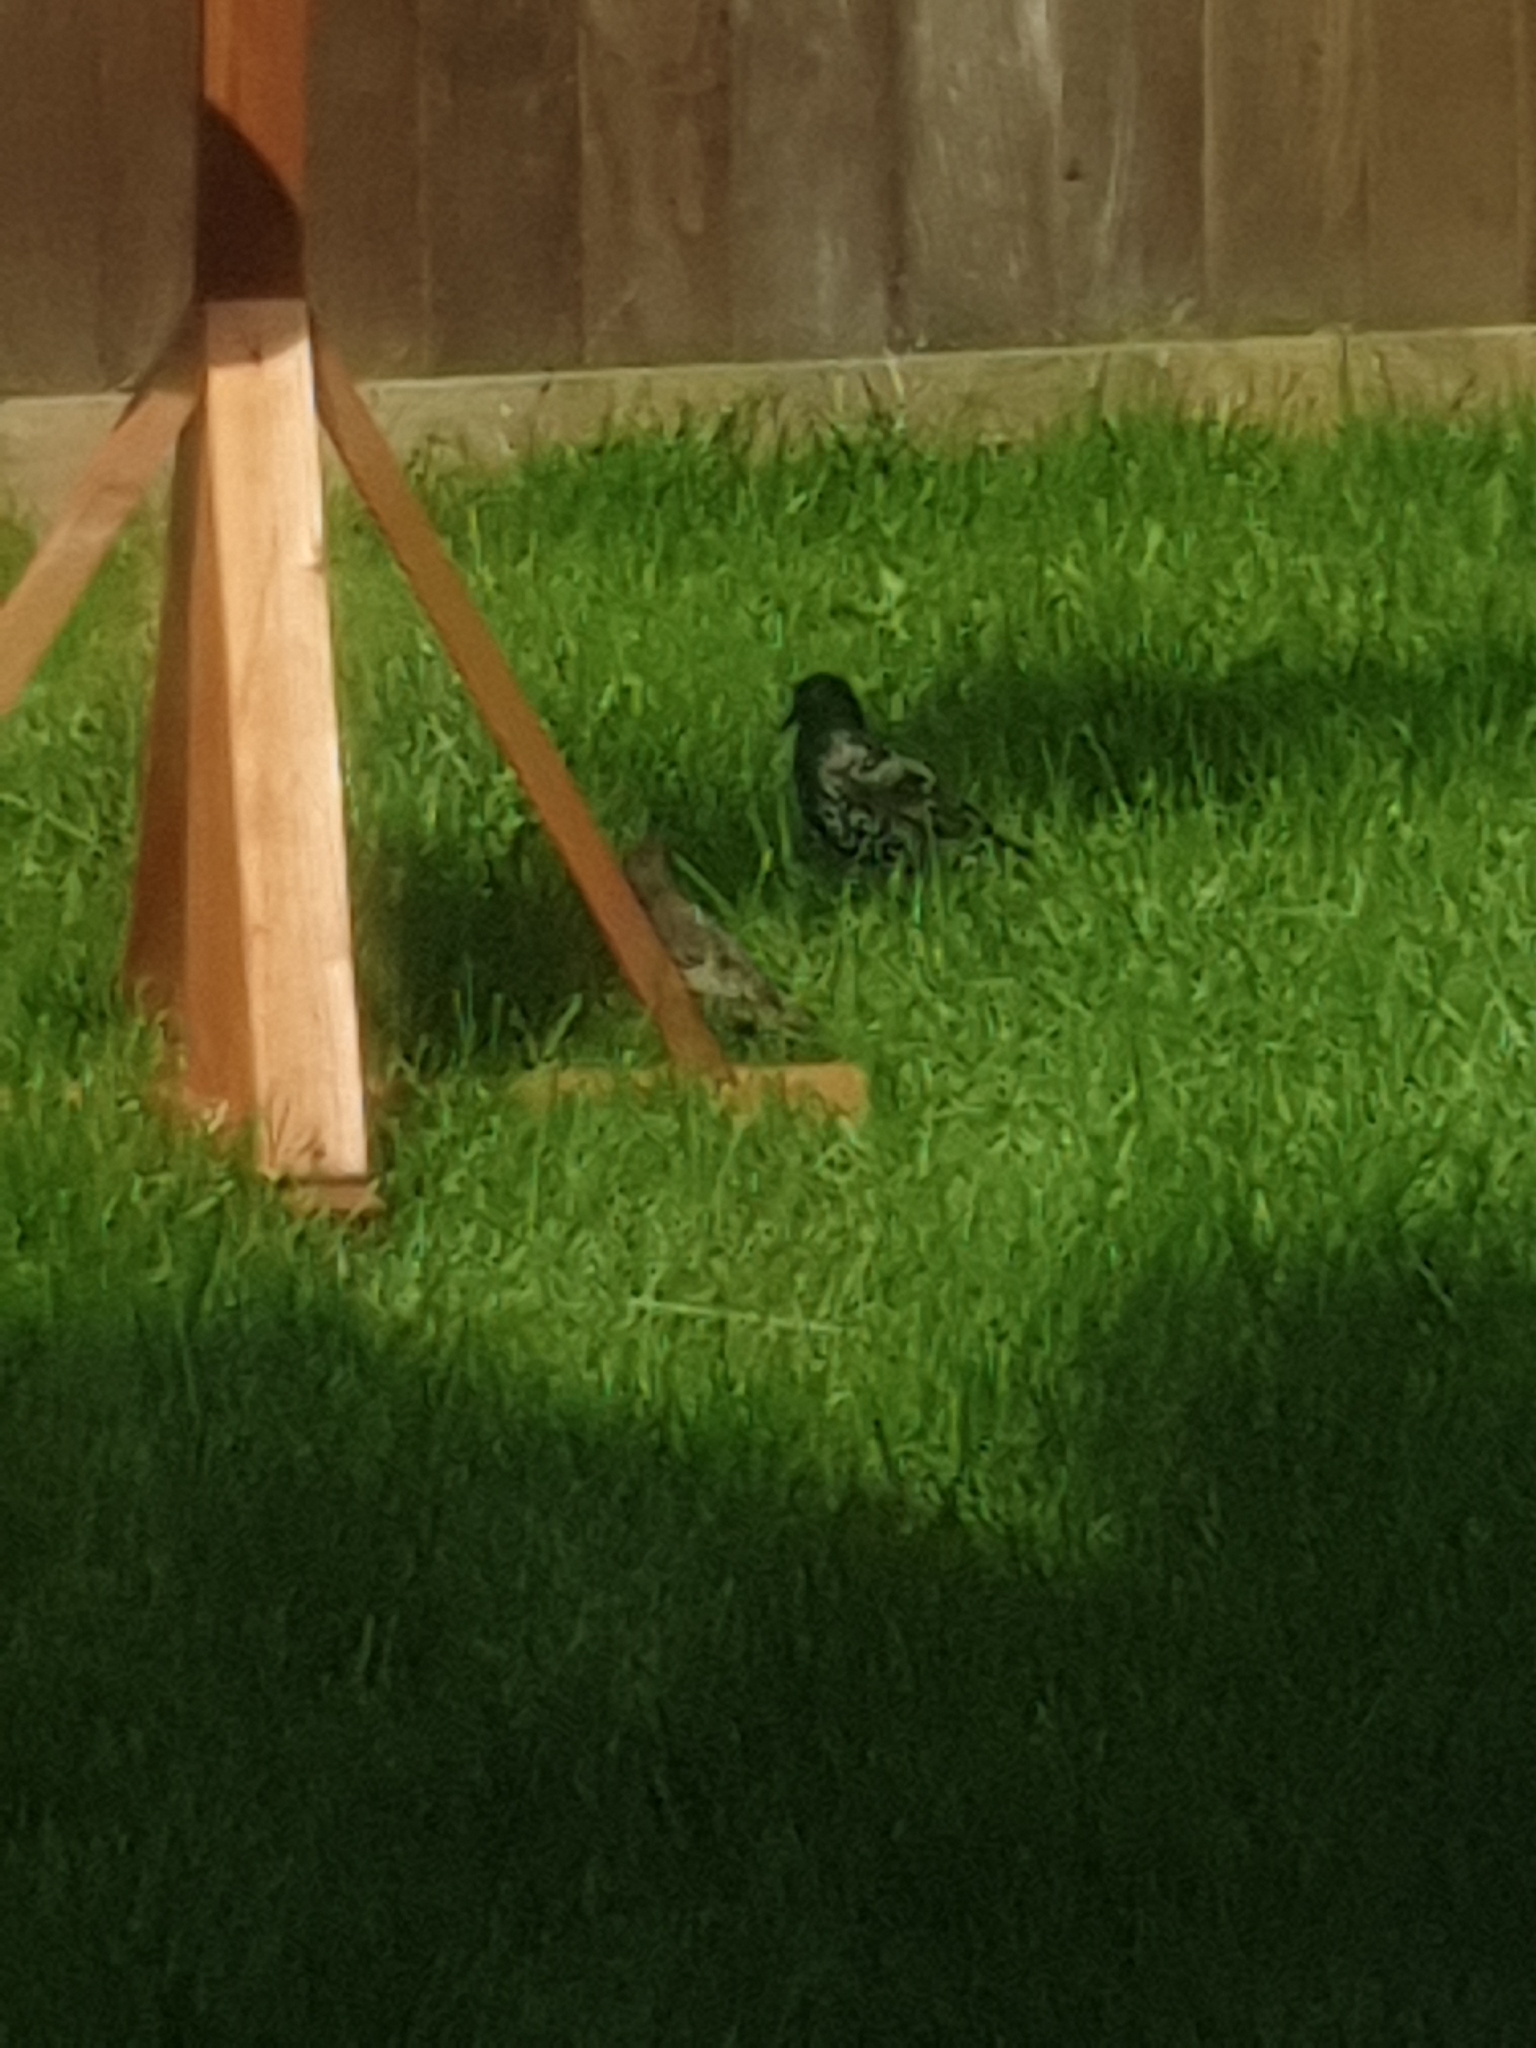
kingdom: Animalia
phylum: Chordata
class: Aves
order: Passeriformes
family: Sturnidae
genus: Sturnus
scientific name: Sturnus vulgaris
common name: Common starling
